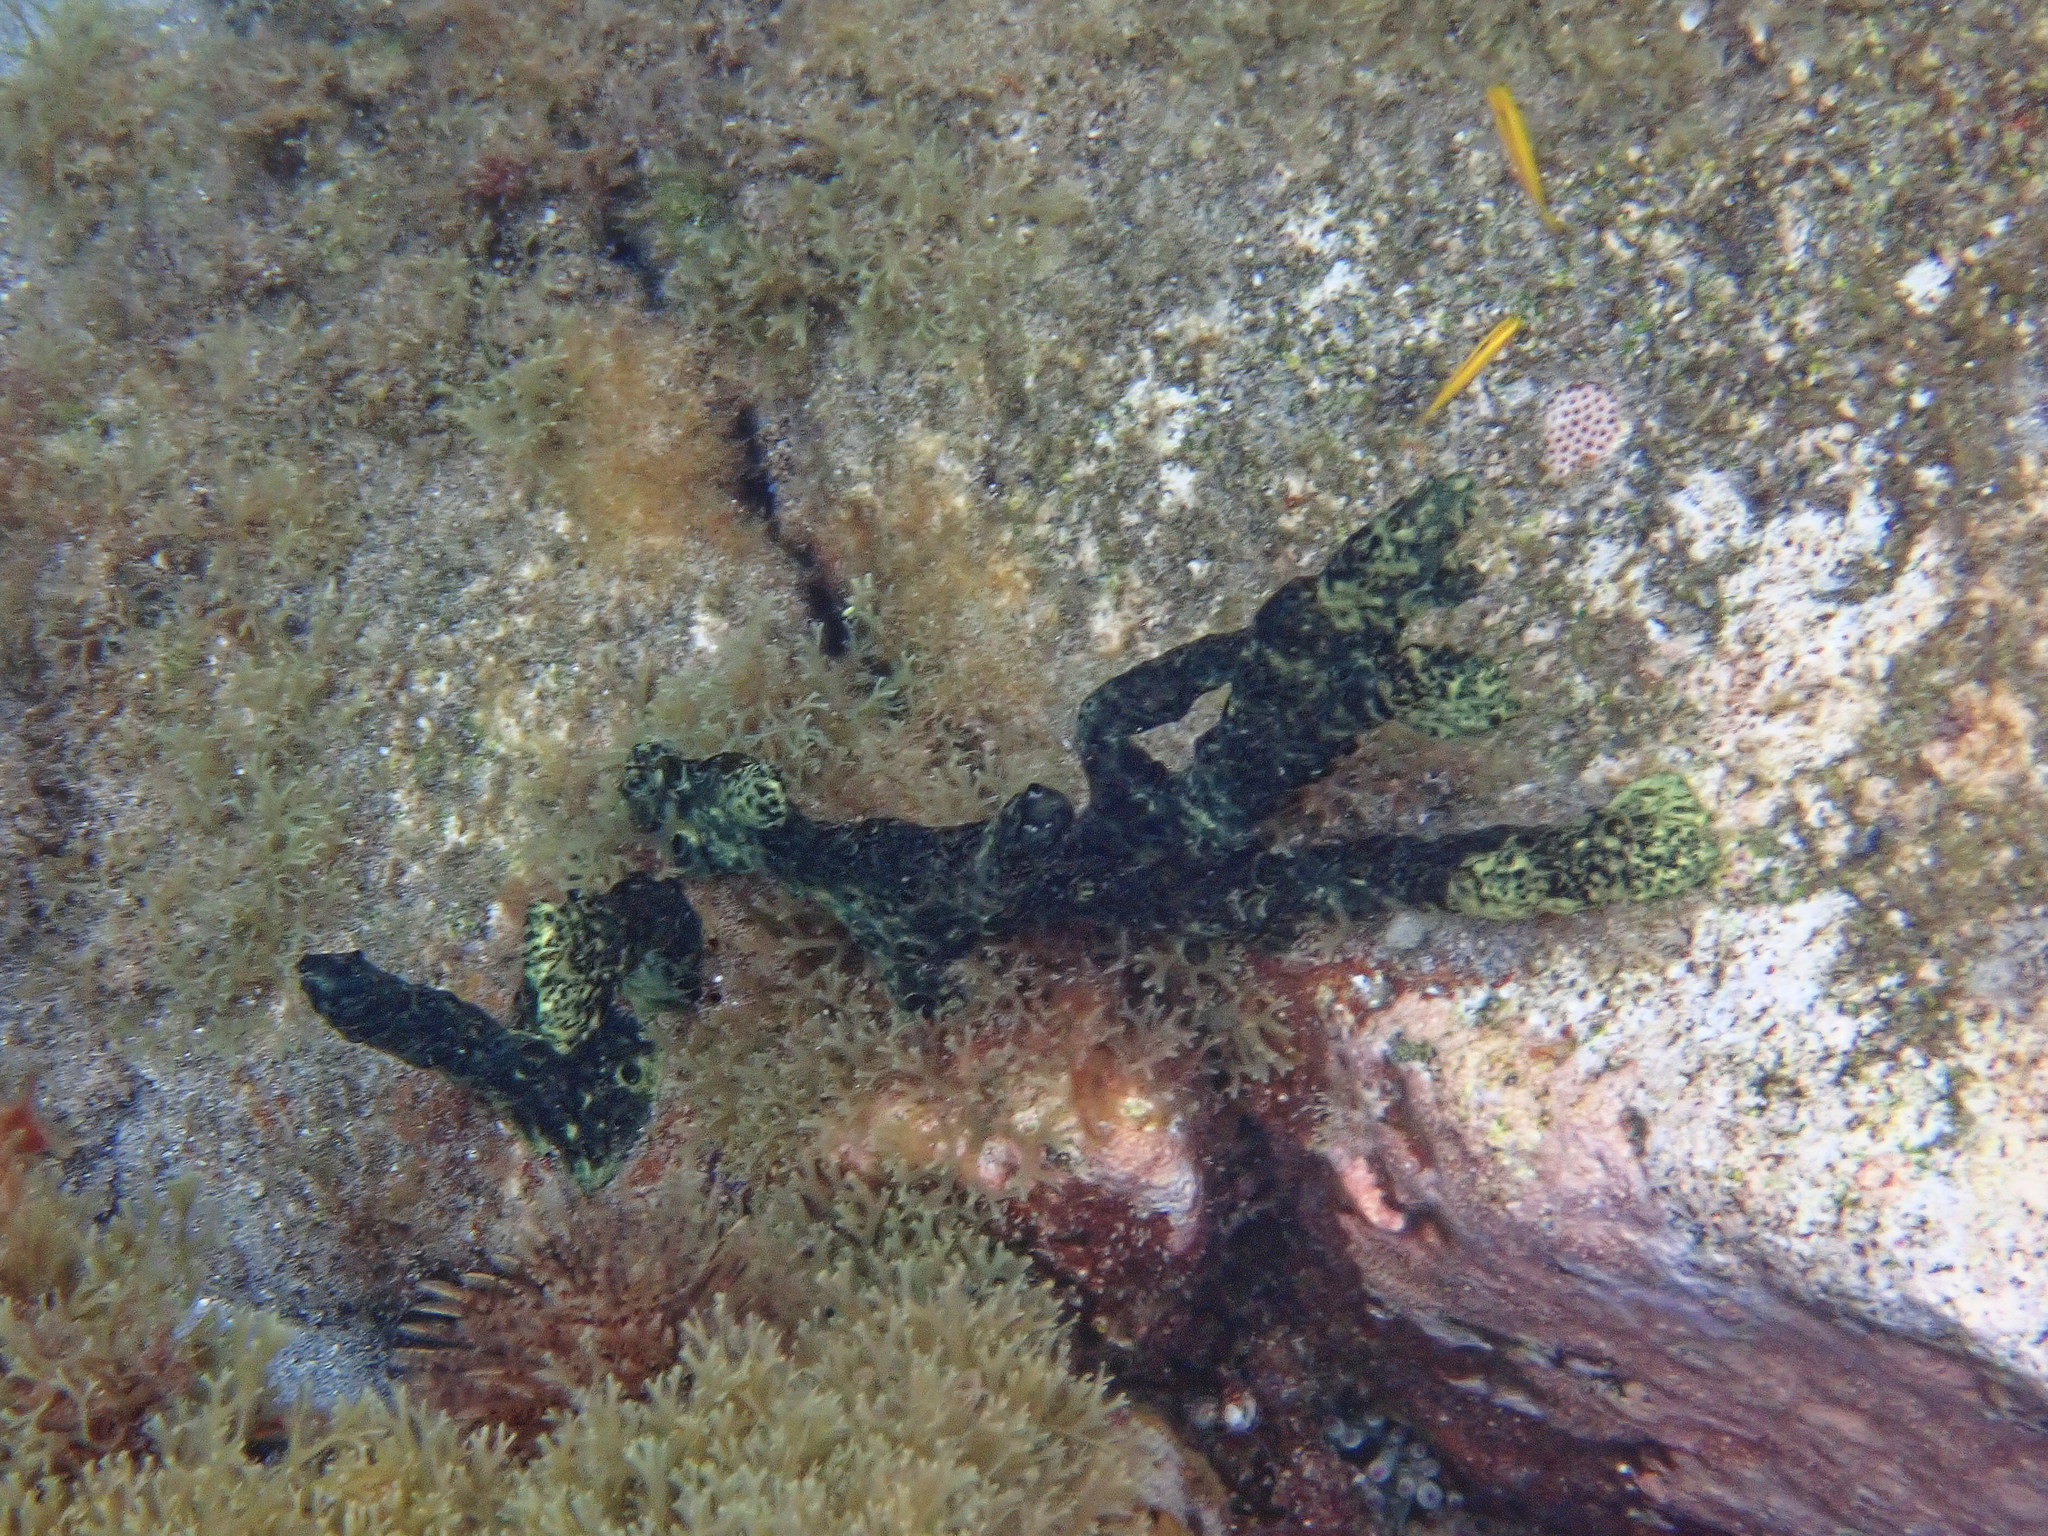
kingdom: Animalia
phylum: Porifera
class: Demospongiae
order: Poecilosclerida
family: Iotrochotidae
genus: Iotrochota
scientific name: Iotrochota birotulata
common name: Purple bleeding sponge
